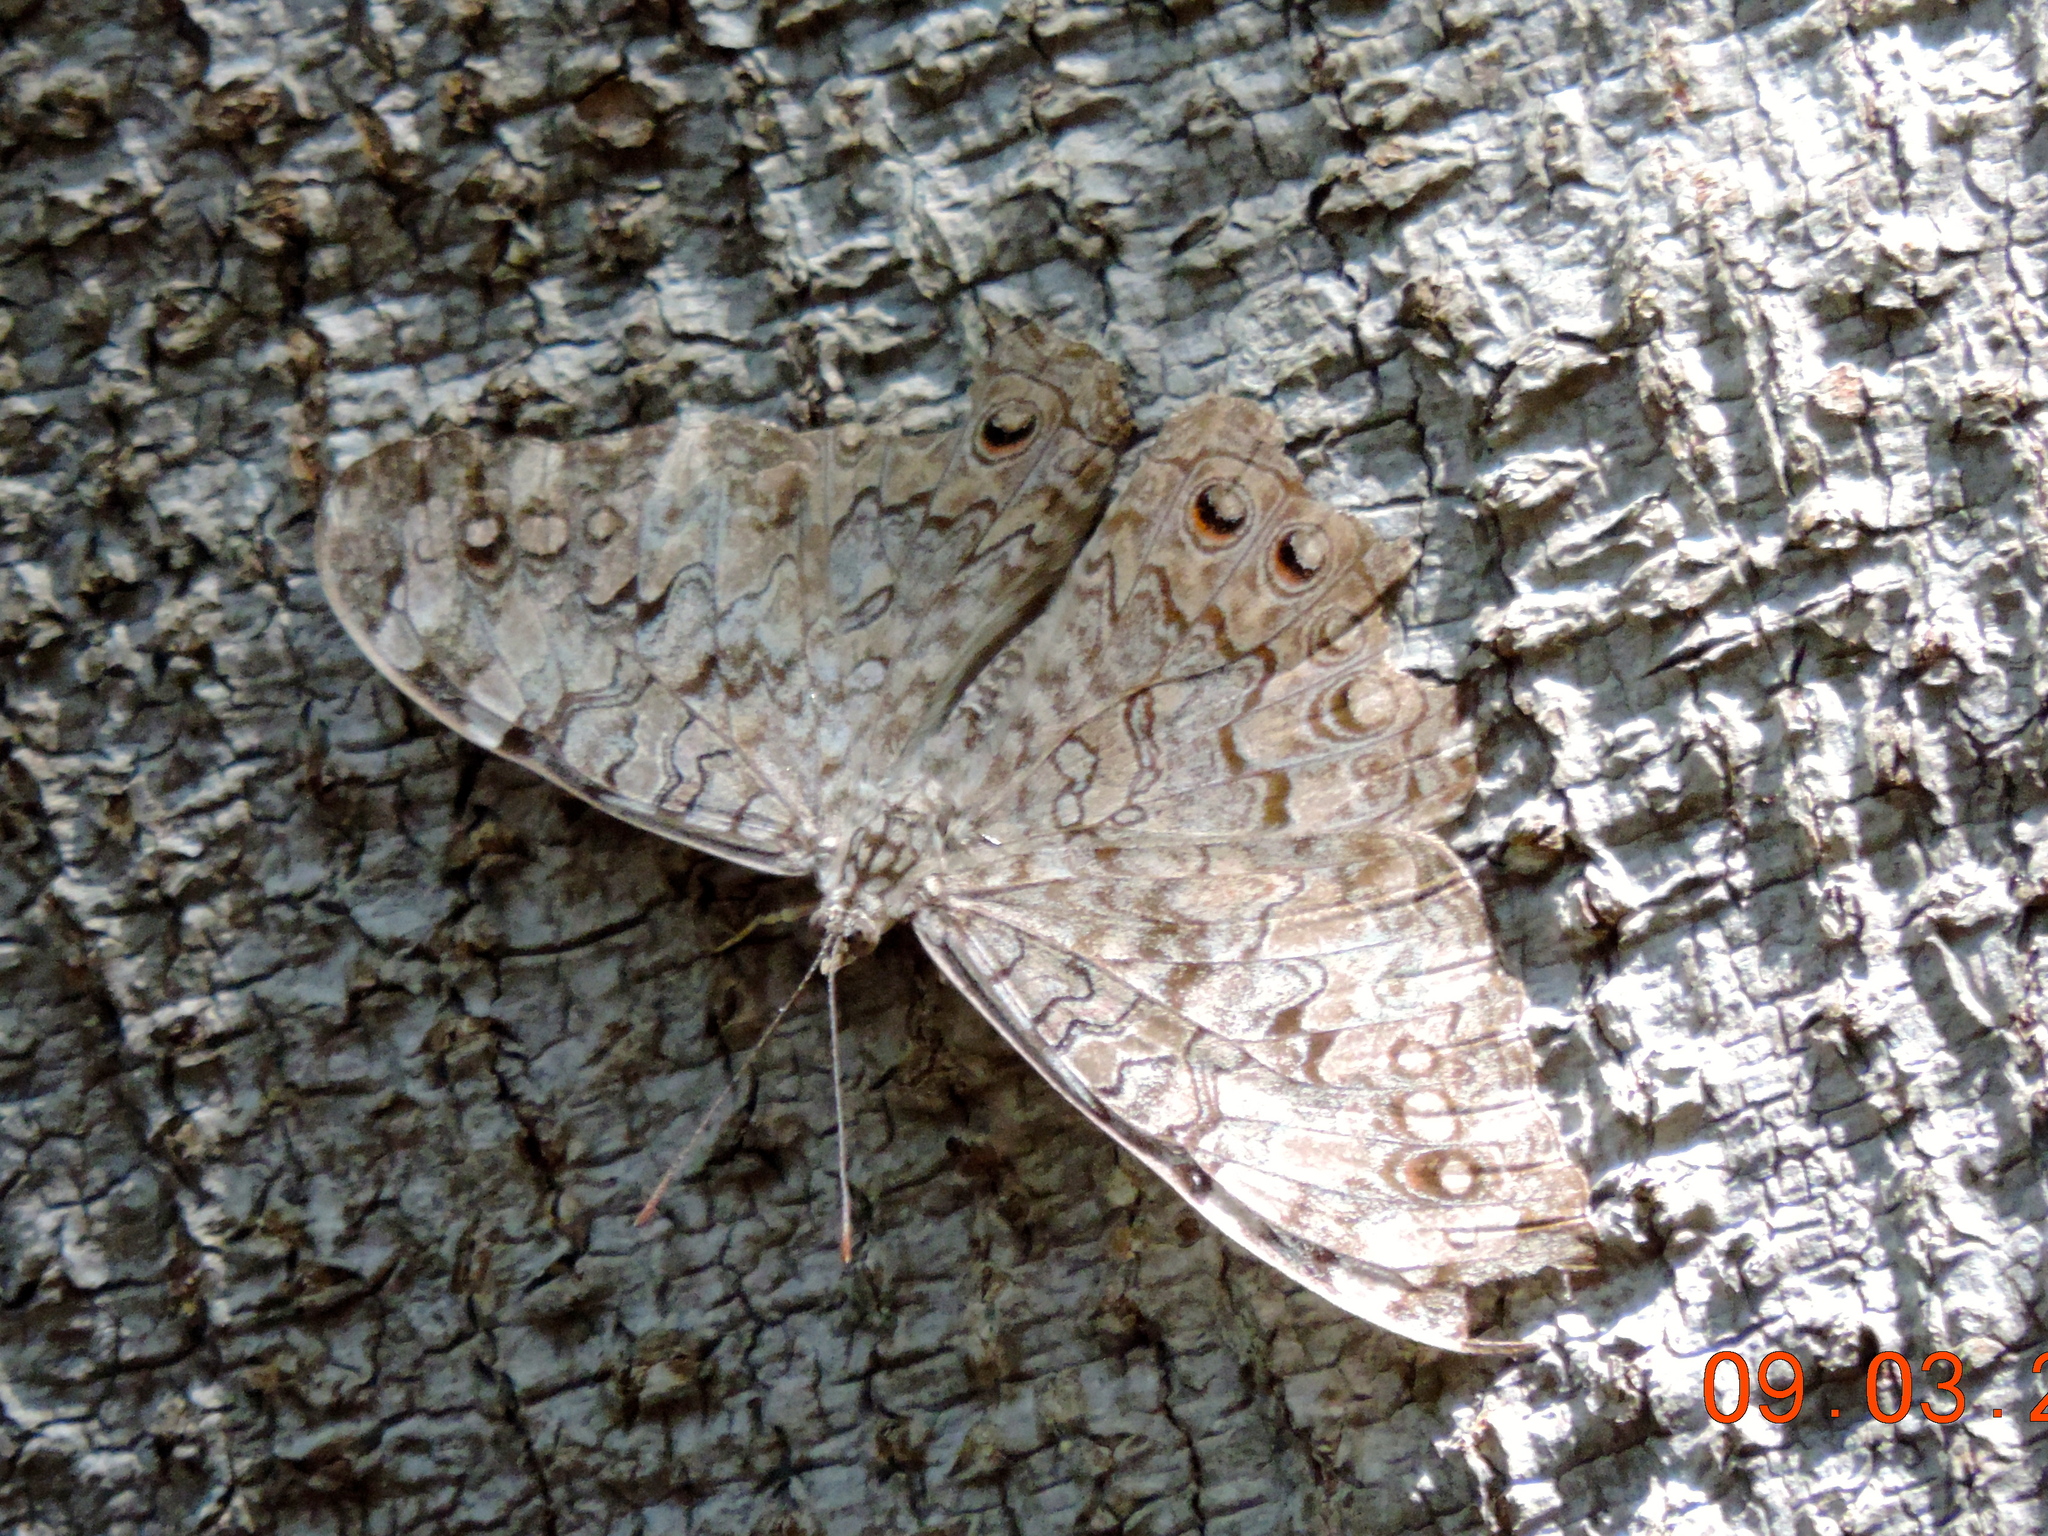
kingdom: Animalia
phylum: Arthropoda
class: Insecta
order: Lepidoptera
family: Nymphalidae
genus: Hamadryas
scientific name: Hamadryas februa
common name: Gray cracker
